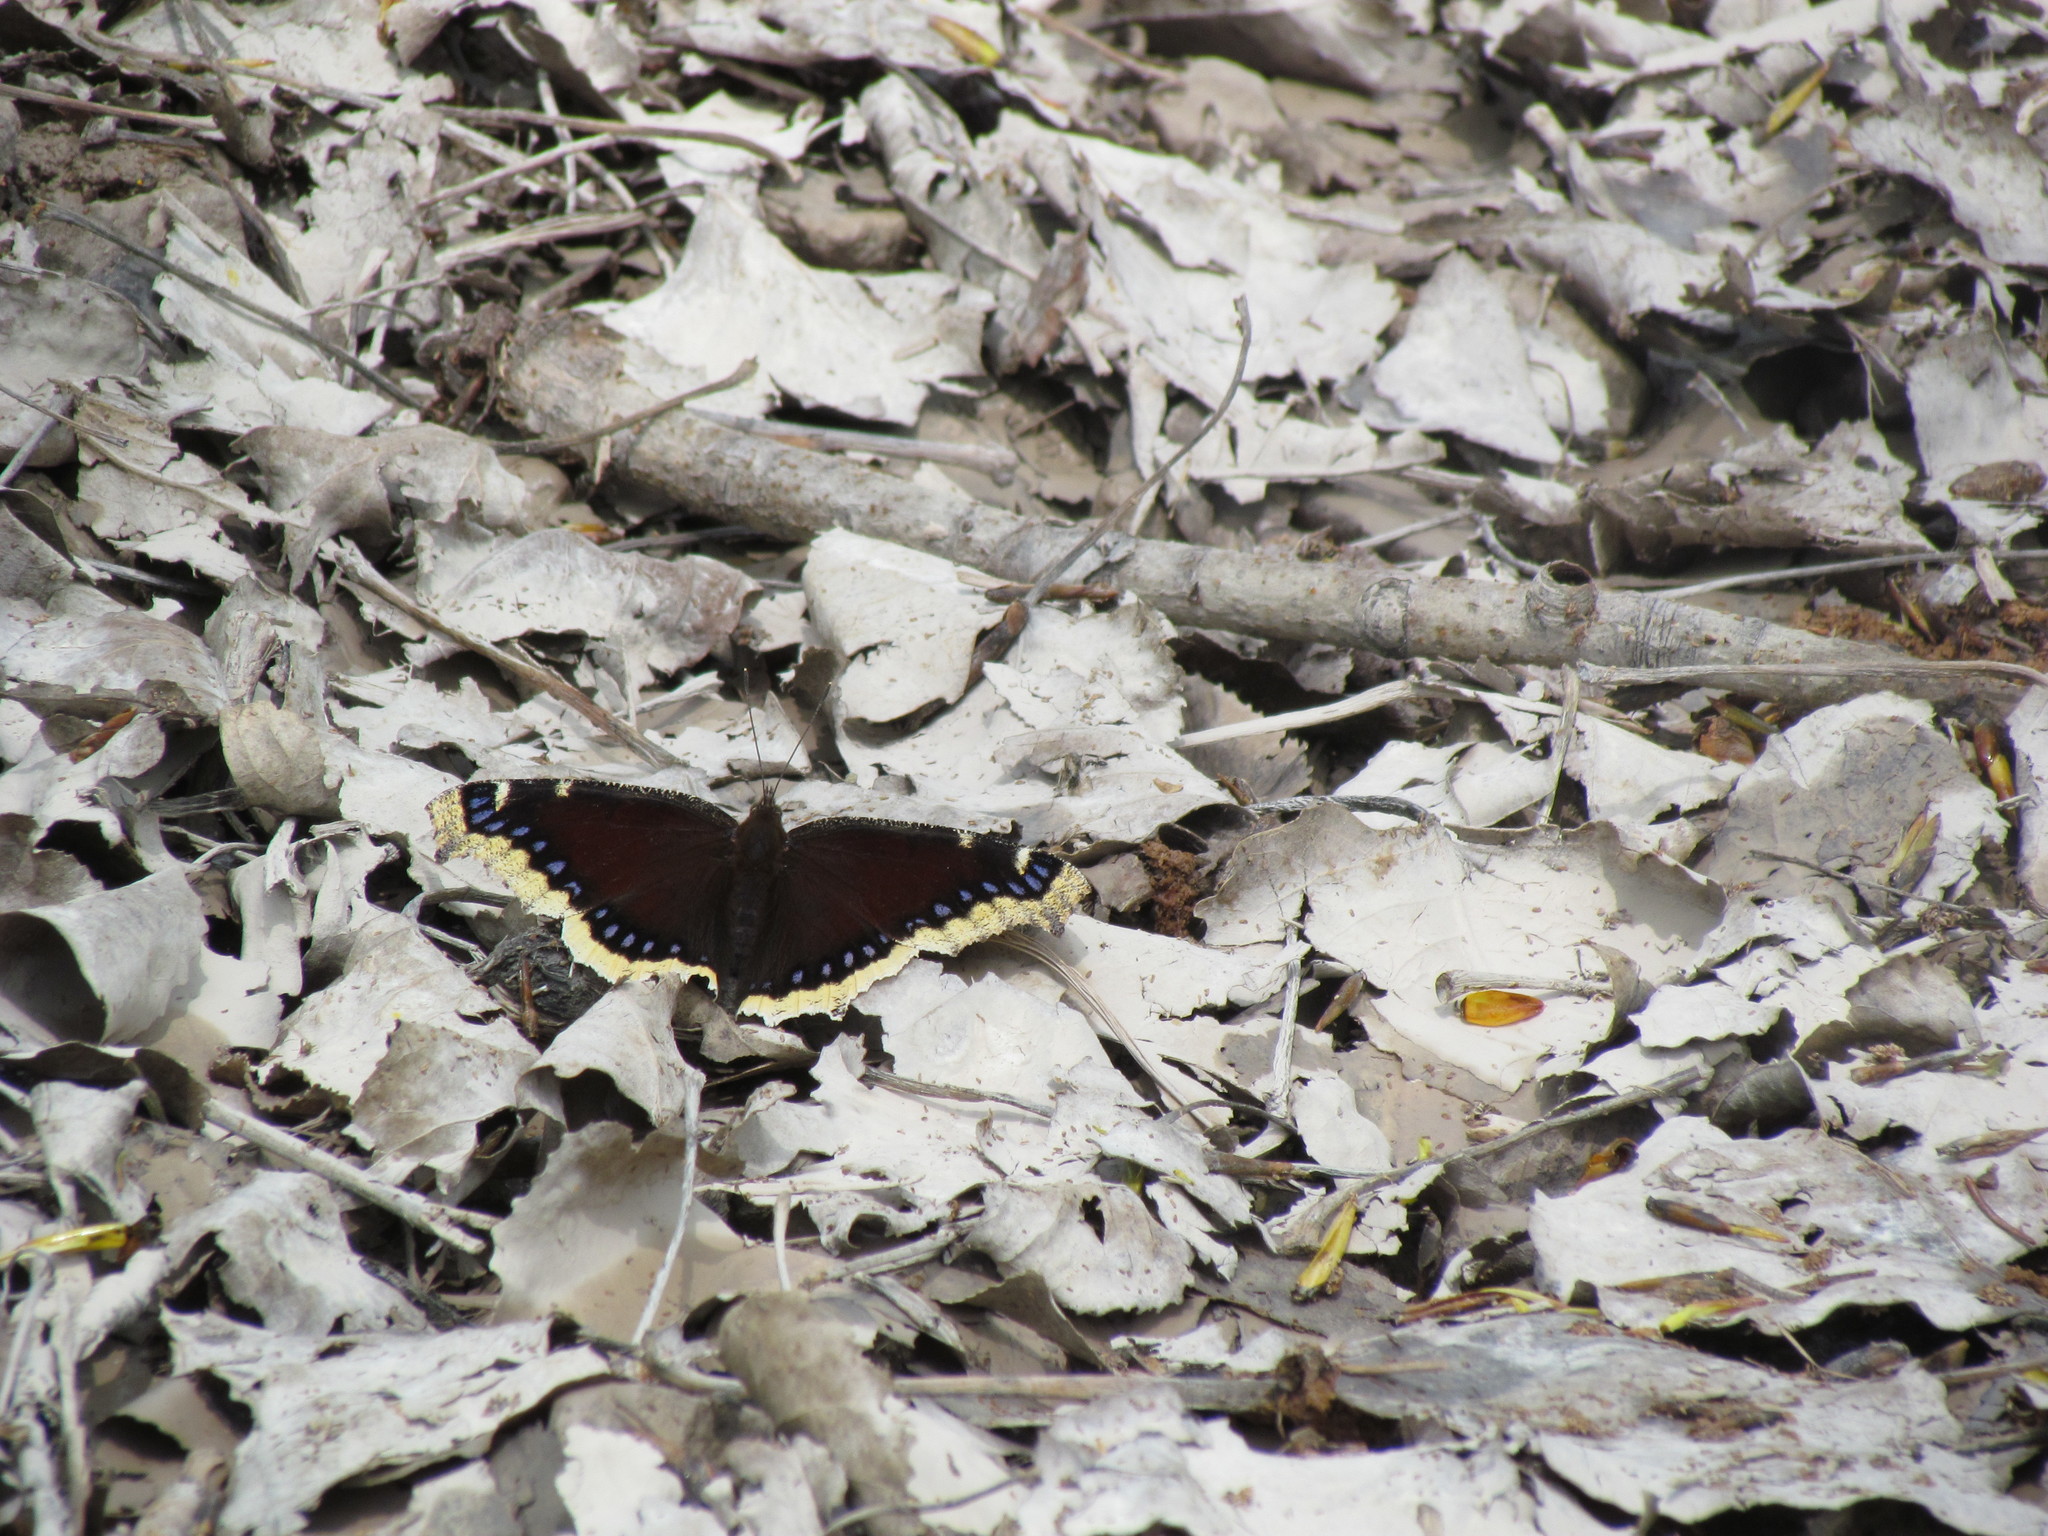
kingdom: Animalia
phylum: Arthropoda
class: Insecta
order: Lepidoptera
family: Nymphalidae
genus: Nymphalis
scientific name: Nymphalis antiopa
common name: Camberwell beauty
